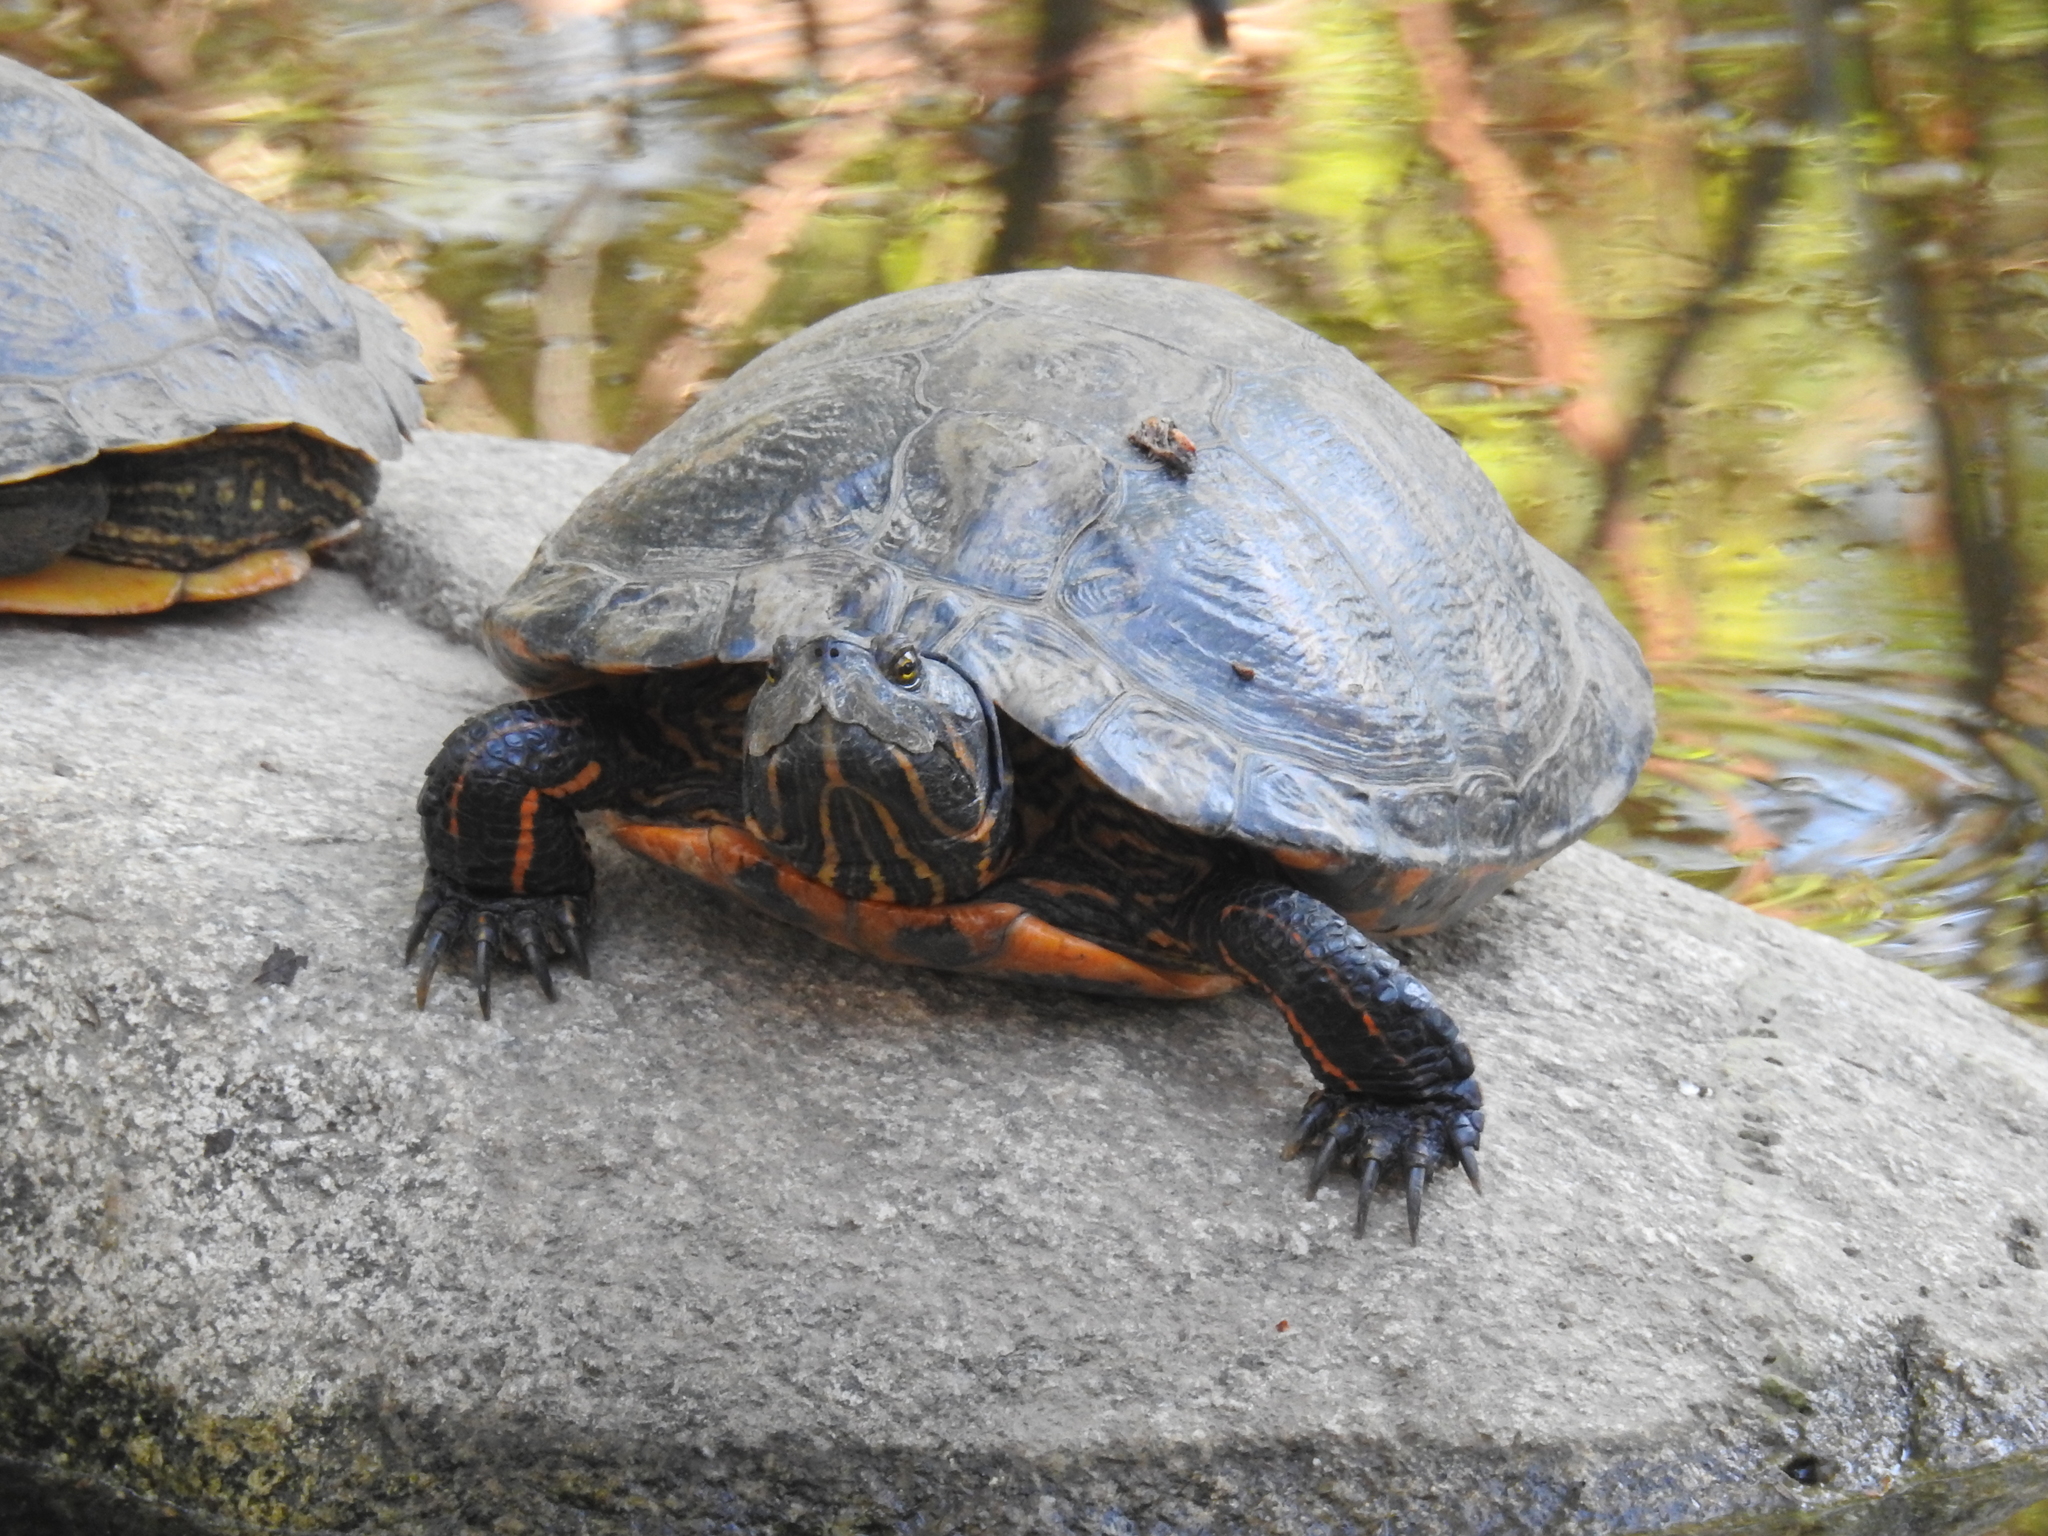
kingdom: Animalia
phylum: Chordata
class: Testudines
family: Emydidae
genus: Trachemys
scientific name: Trachemys scripta
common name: Slider
